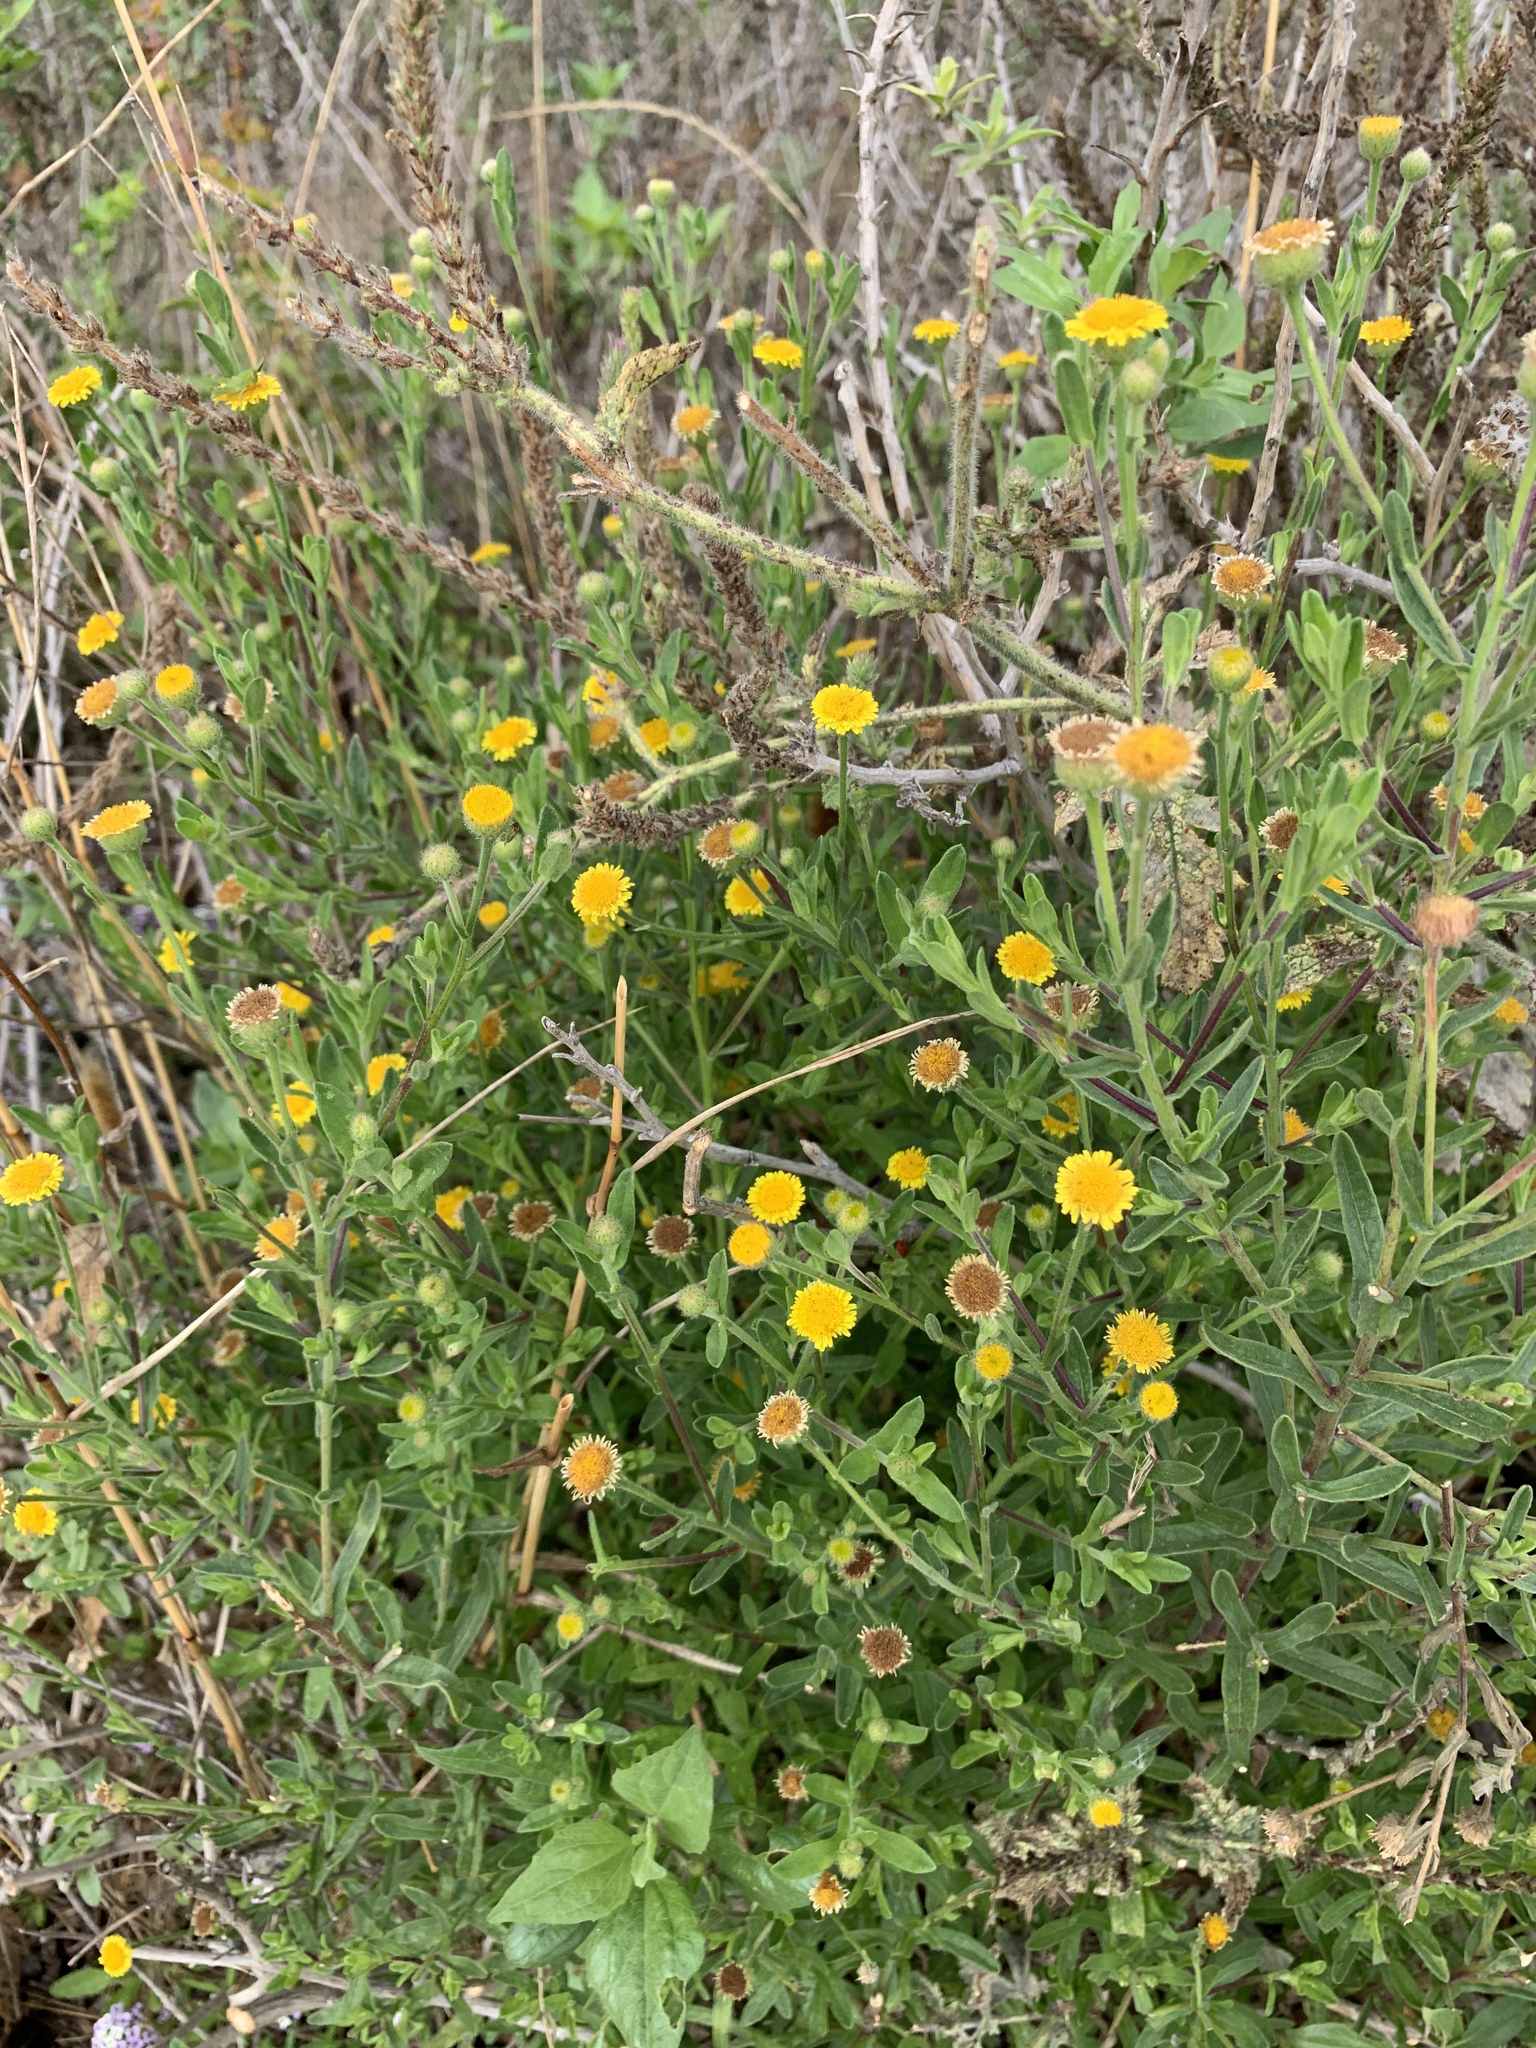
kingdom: Plantae
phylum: Tracheophyta
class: Magnoliopsida
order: Asterales
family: Asteraceae
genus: Pulicaria
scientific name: Pulicaria paludosa
